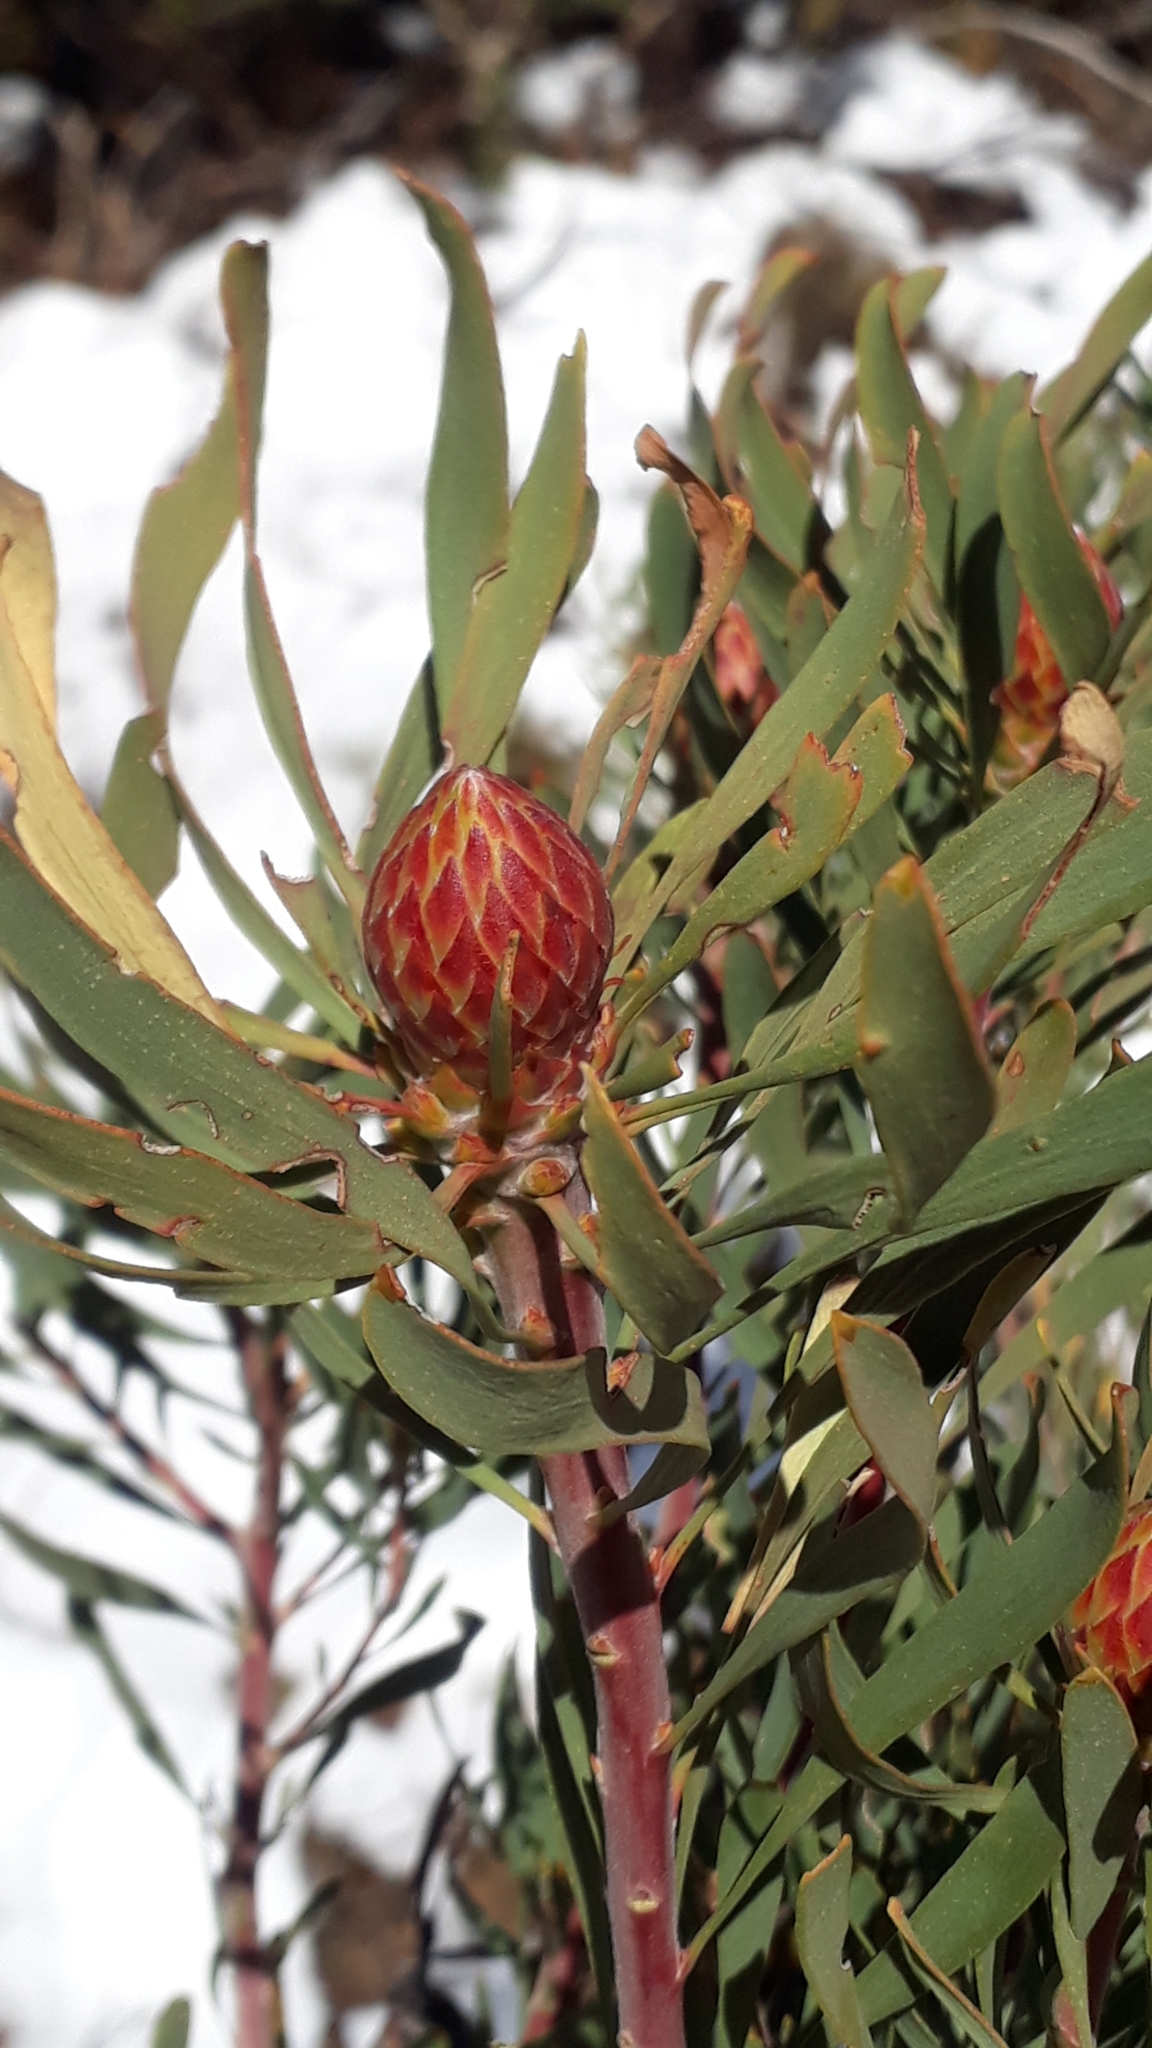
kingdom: Plantae
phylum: Tracheophyta
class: Magnoliopsida
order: Proteales
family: Proteaceae
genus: Leucadendron
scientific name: Leucadendron rubrum
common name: Spinning top
